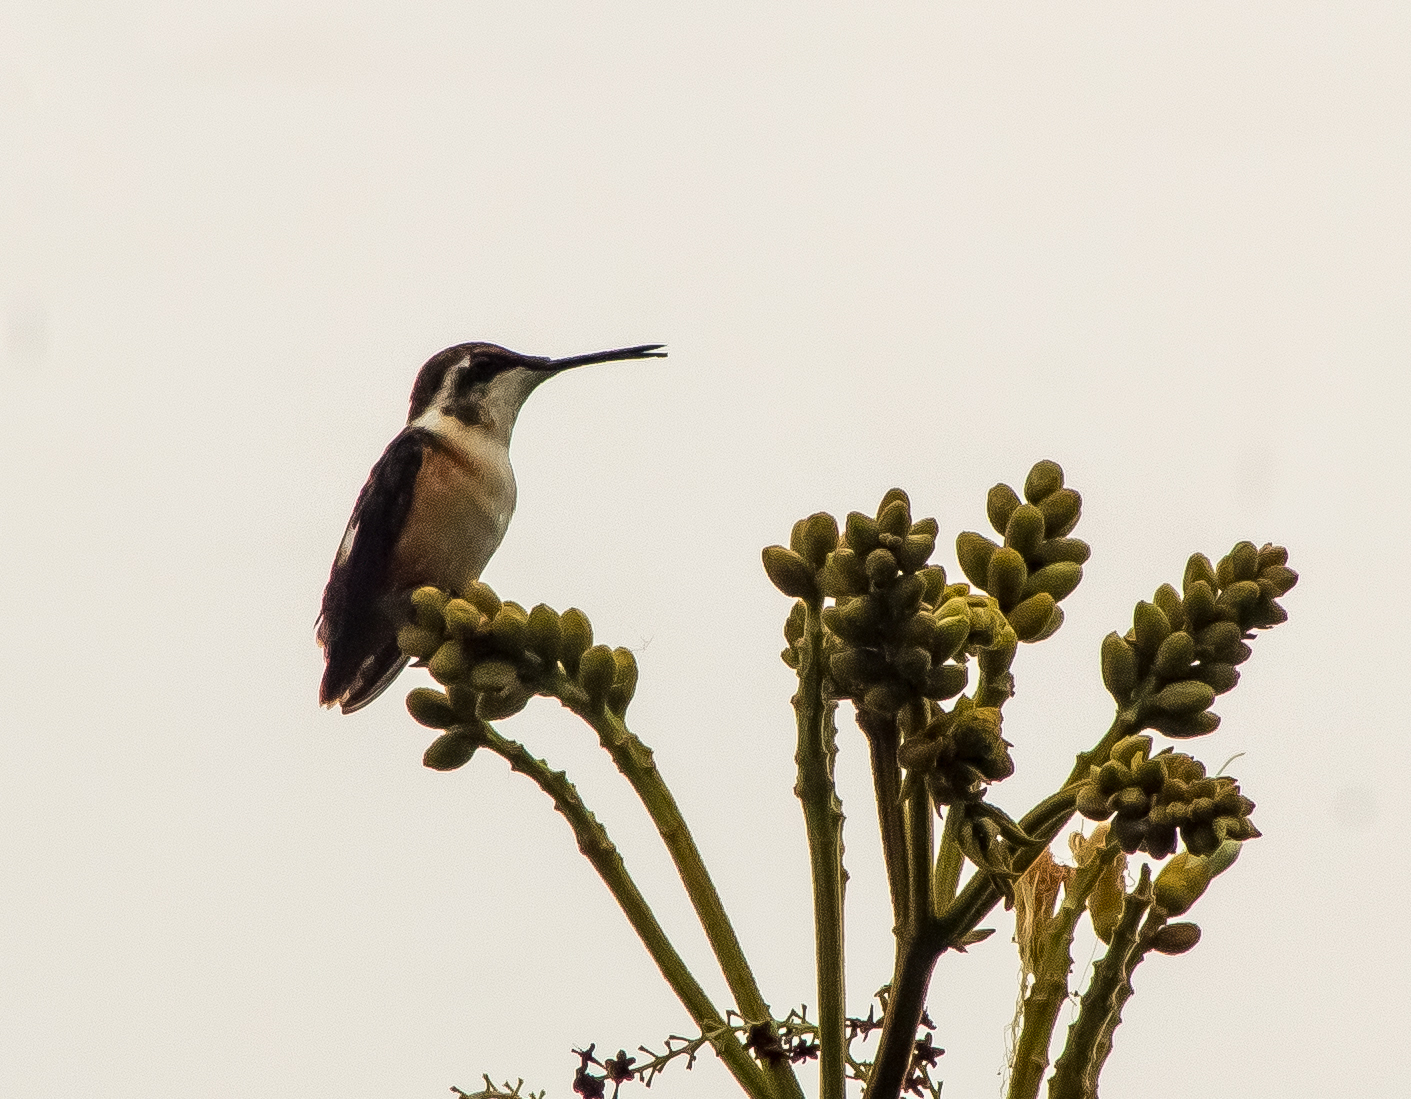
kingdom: Animalia
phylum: Chordata
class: Aves
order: Apodiformes
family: Trochilidae
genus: Chaetocercus
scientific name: Chaetocercus mulsant
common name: White-bellied woodstar
